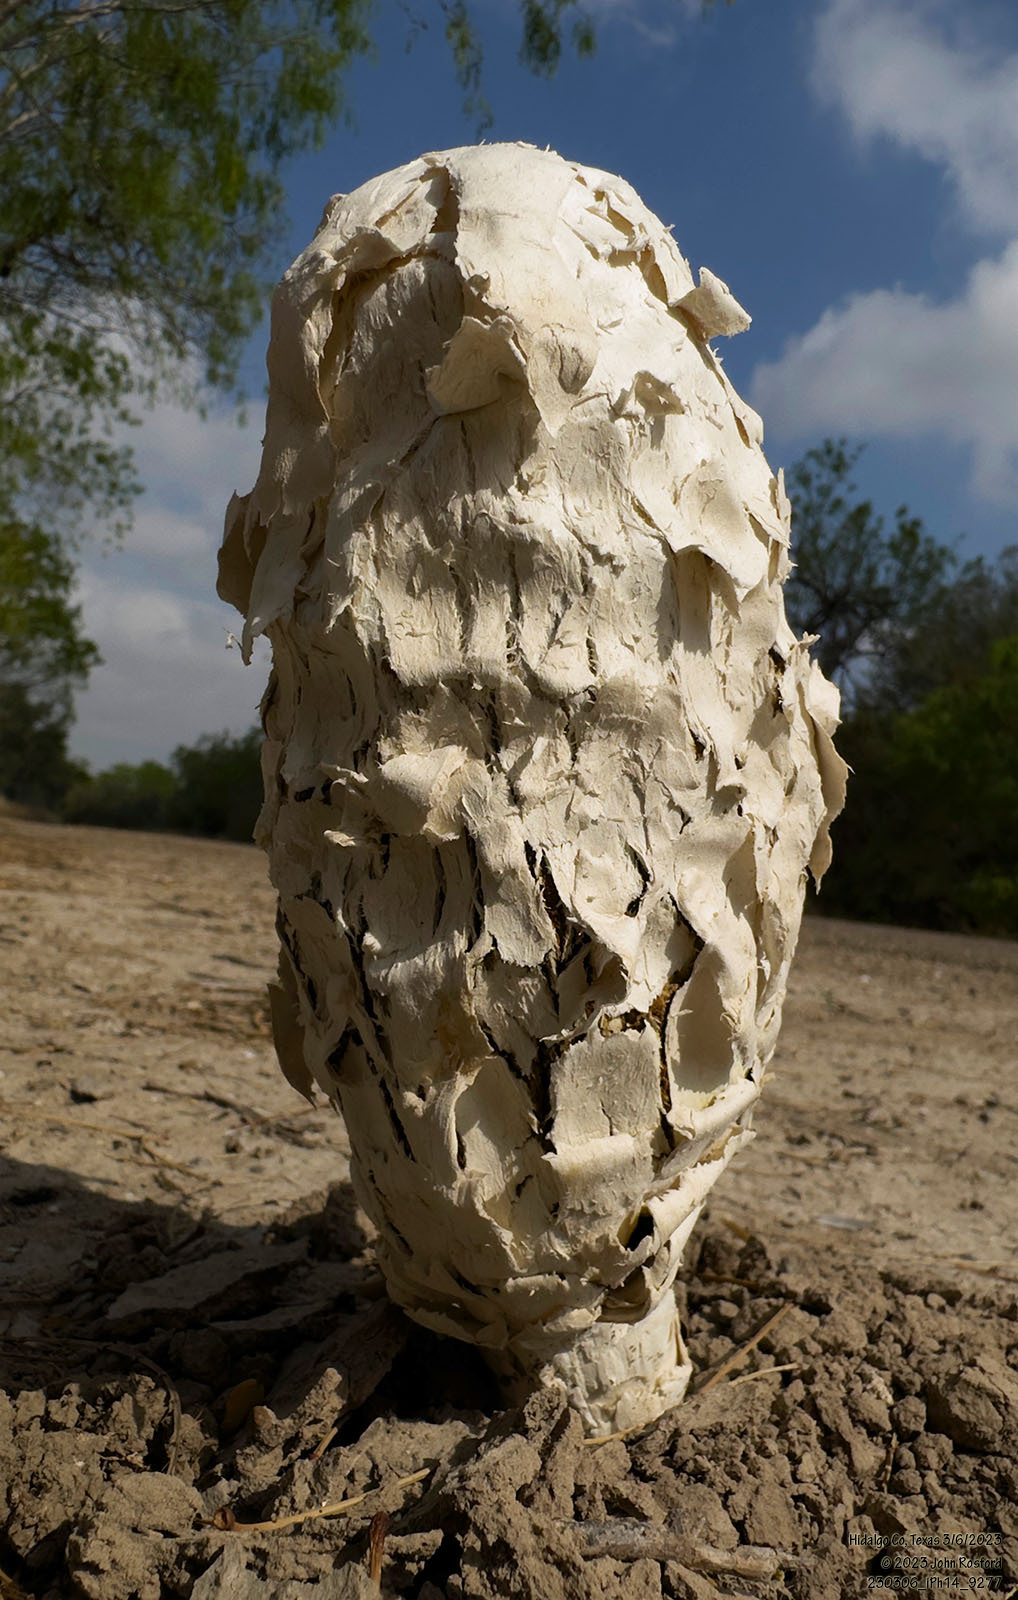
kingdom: Fungi
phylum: Basidiomycota
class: Agaricomycetes
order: Agaricales
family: Agaricaceae
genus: Podaxis
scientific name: Podaxis longii
